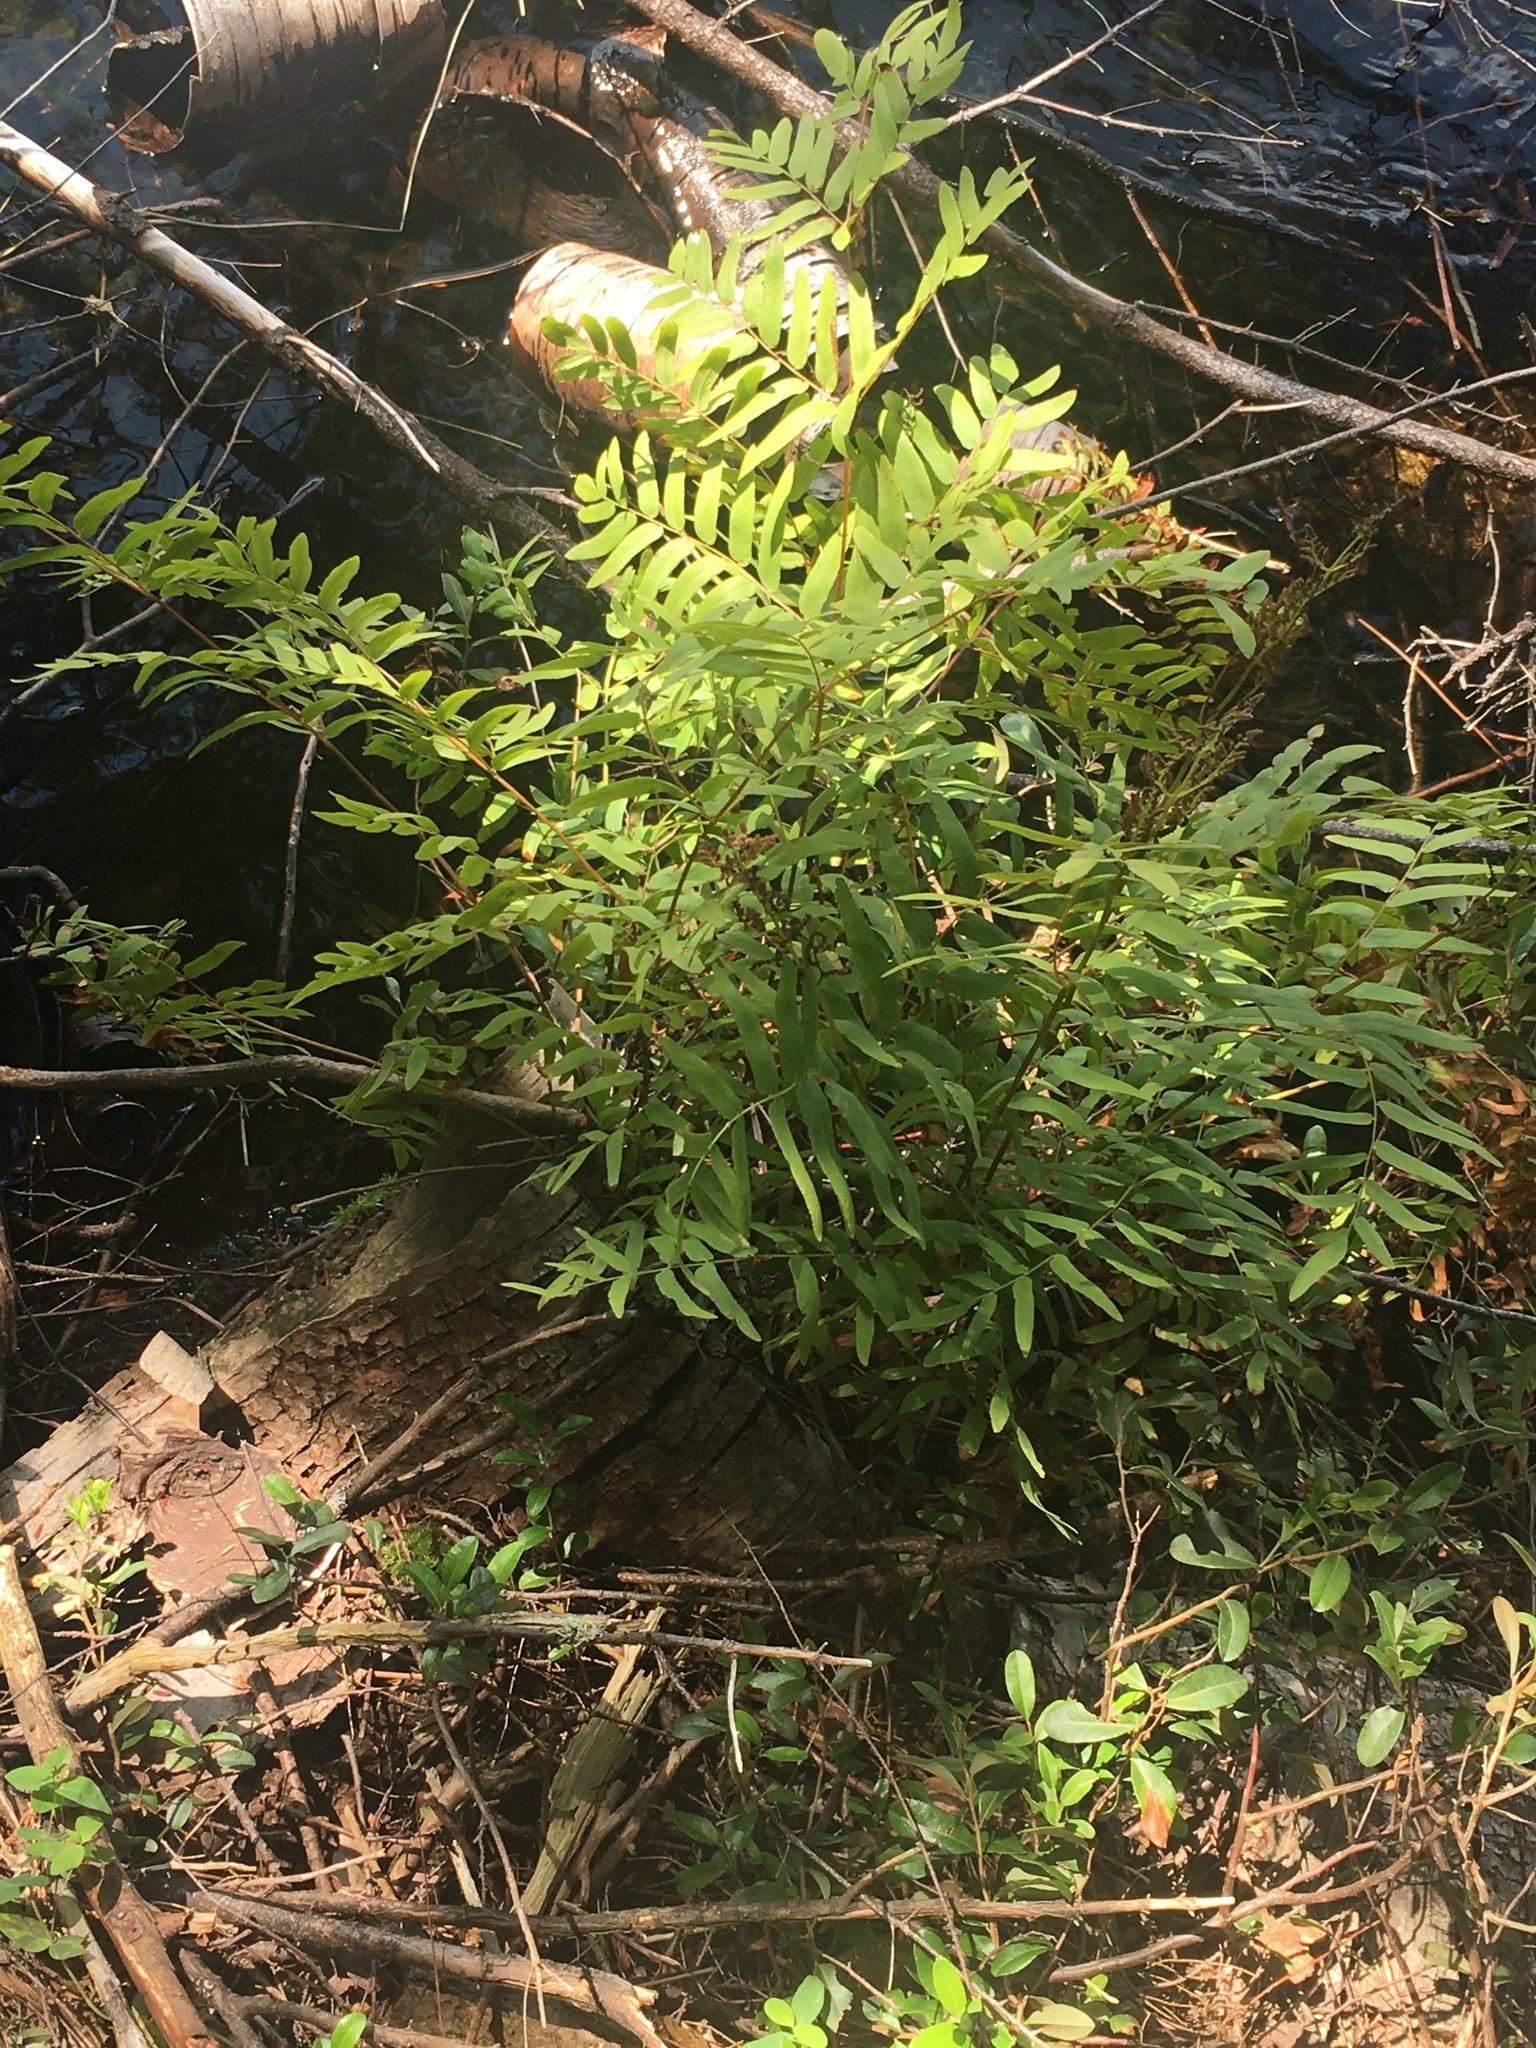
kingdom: Plantae
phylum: Tracheophyta
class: Polypodiopsida
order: Osmundales
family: Osmundaceae
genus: Osmunda
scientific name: Osmunda spectabilis
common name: American royal fern
